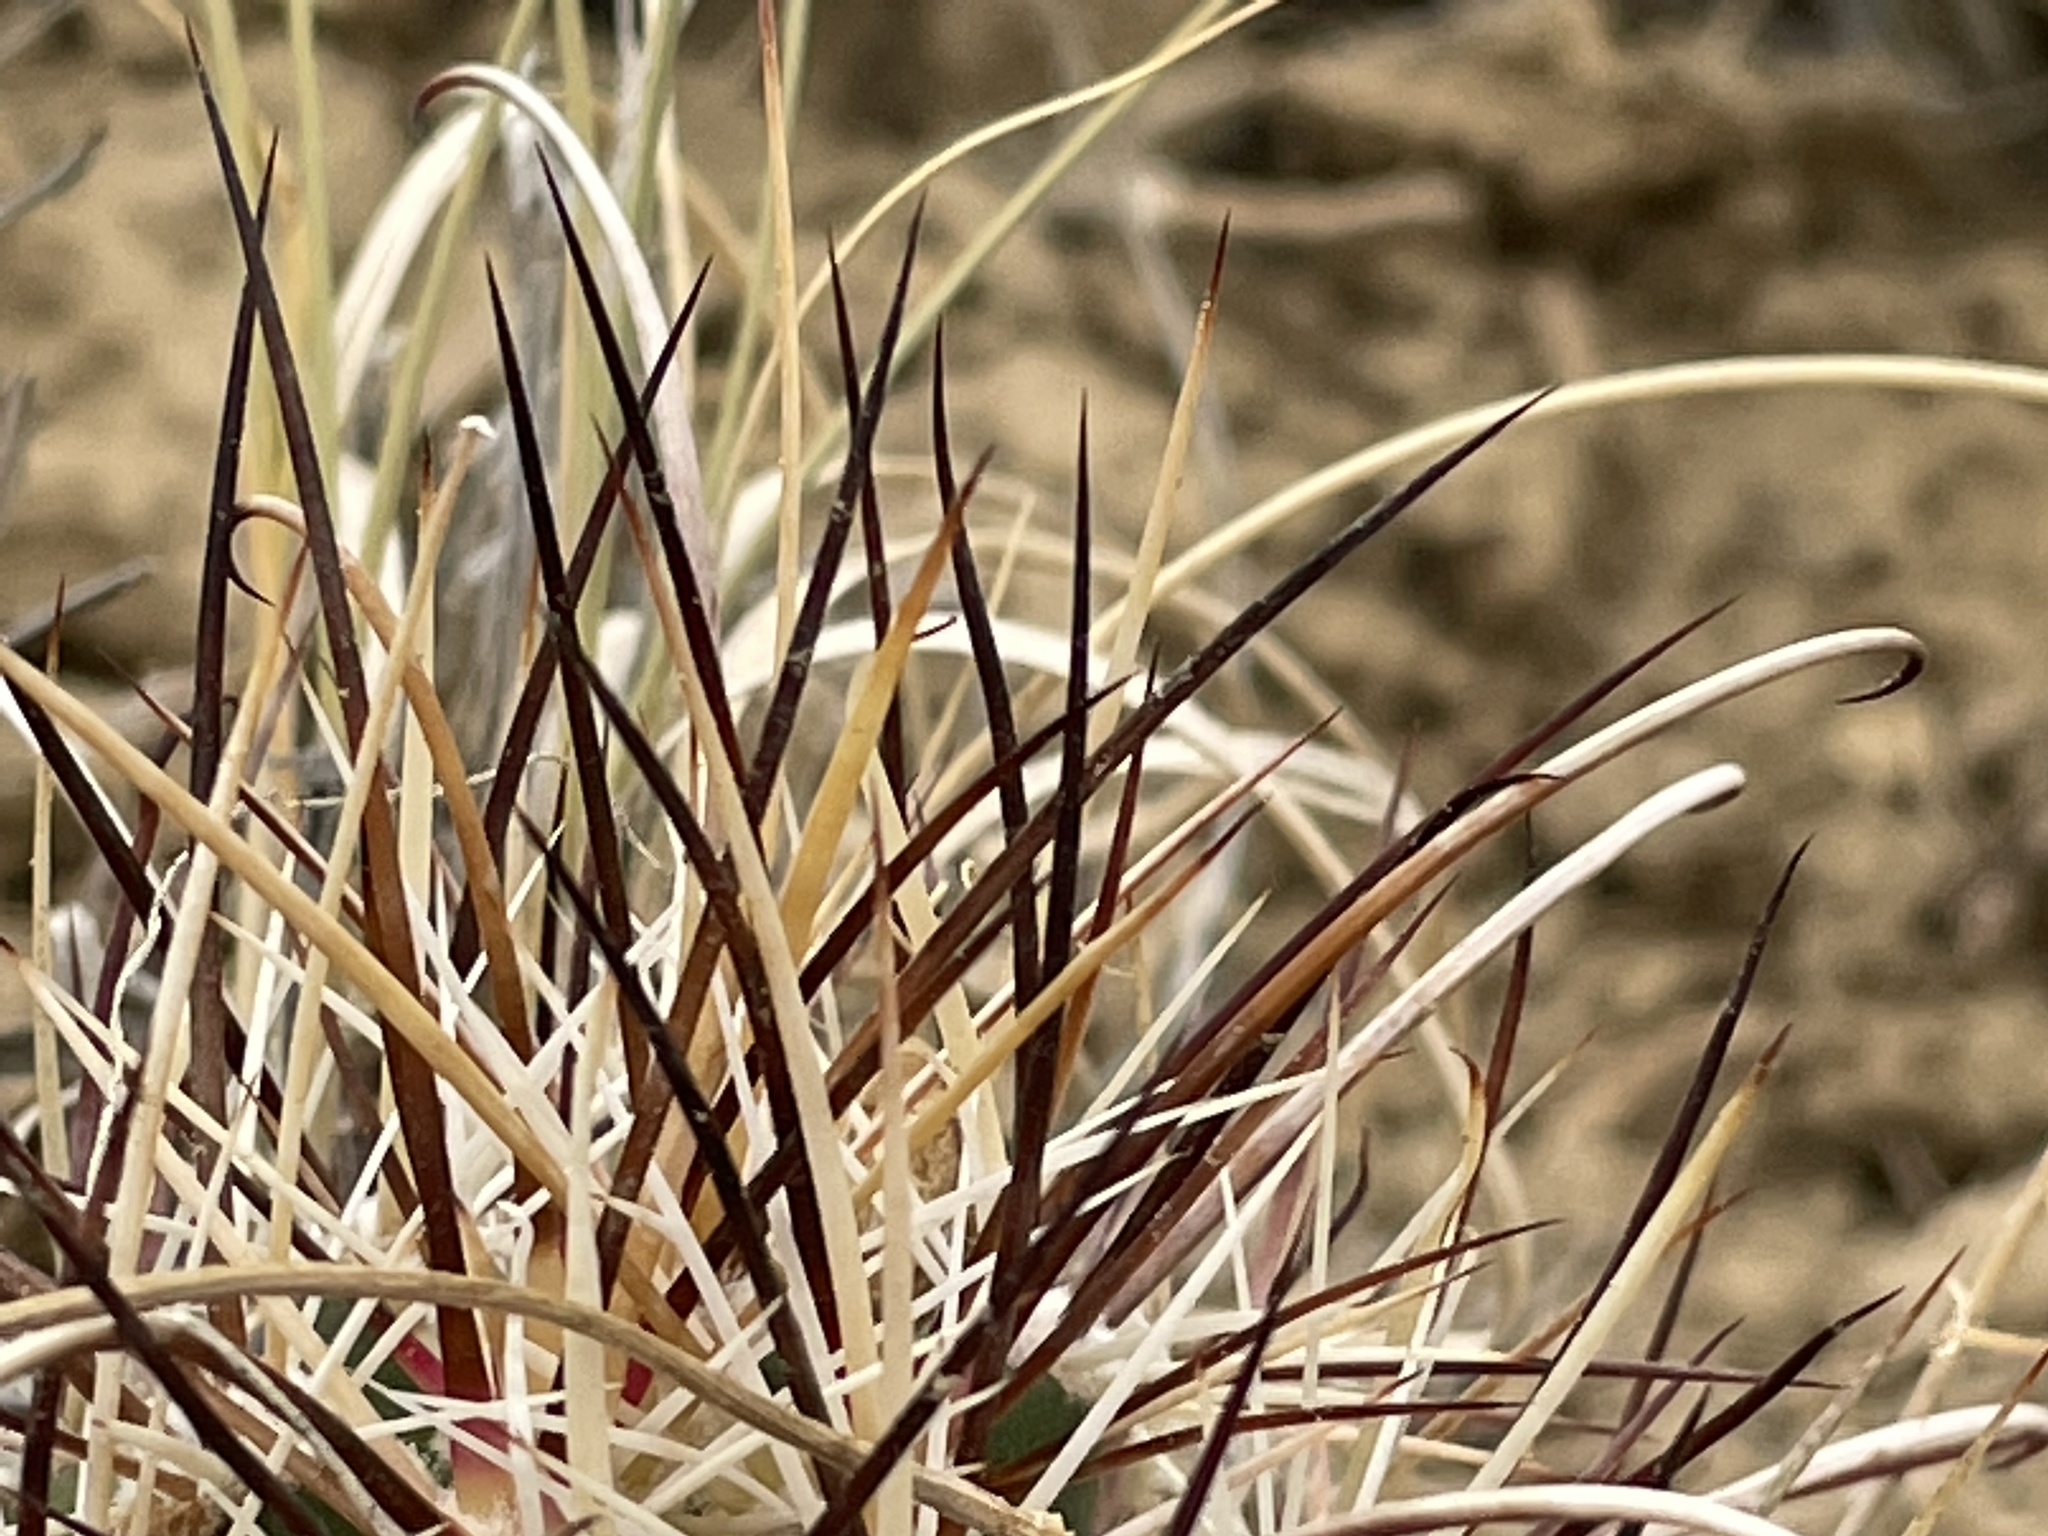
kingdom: Plantae
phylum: Tracheophyta
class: Magnoliopsida
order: Caryophyllales
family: Cactaceae
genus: Sclerocactus
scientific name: Sclerocactus cloverae
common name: Clover's eagle-claw cactus
